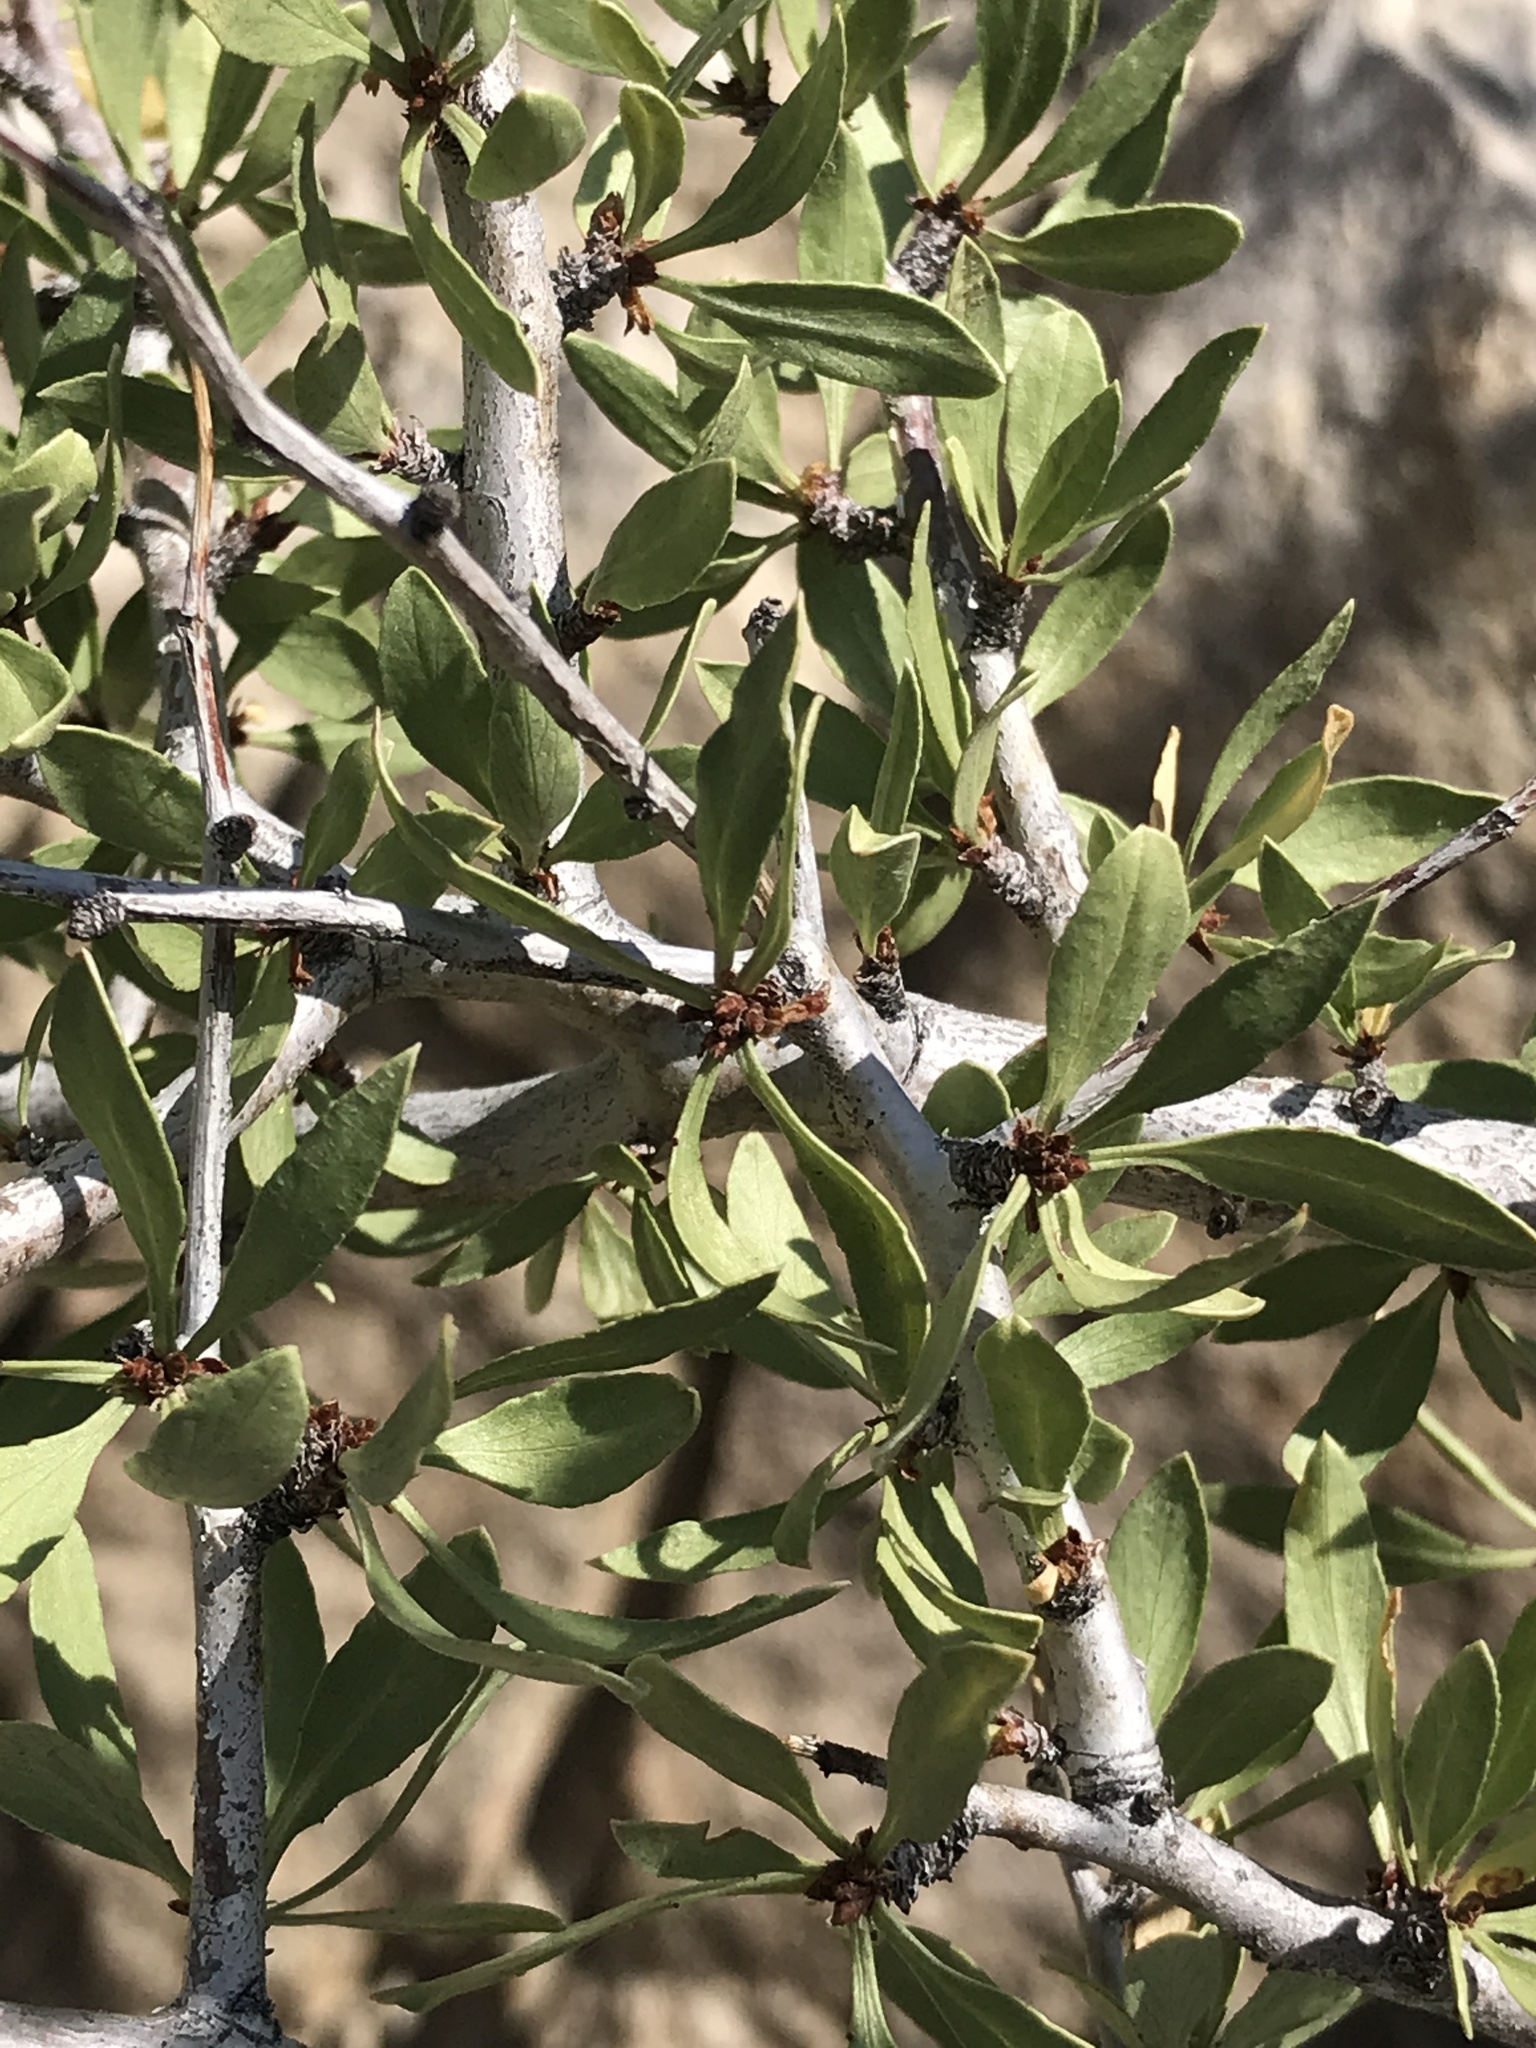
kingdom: Plantae
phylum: Tracheophyta
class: Magnoliopsida
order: Rosales
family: Rosaceae
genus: Prunus
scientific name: Prunus andersonii
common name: Desert peach
